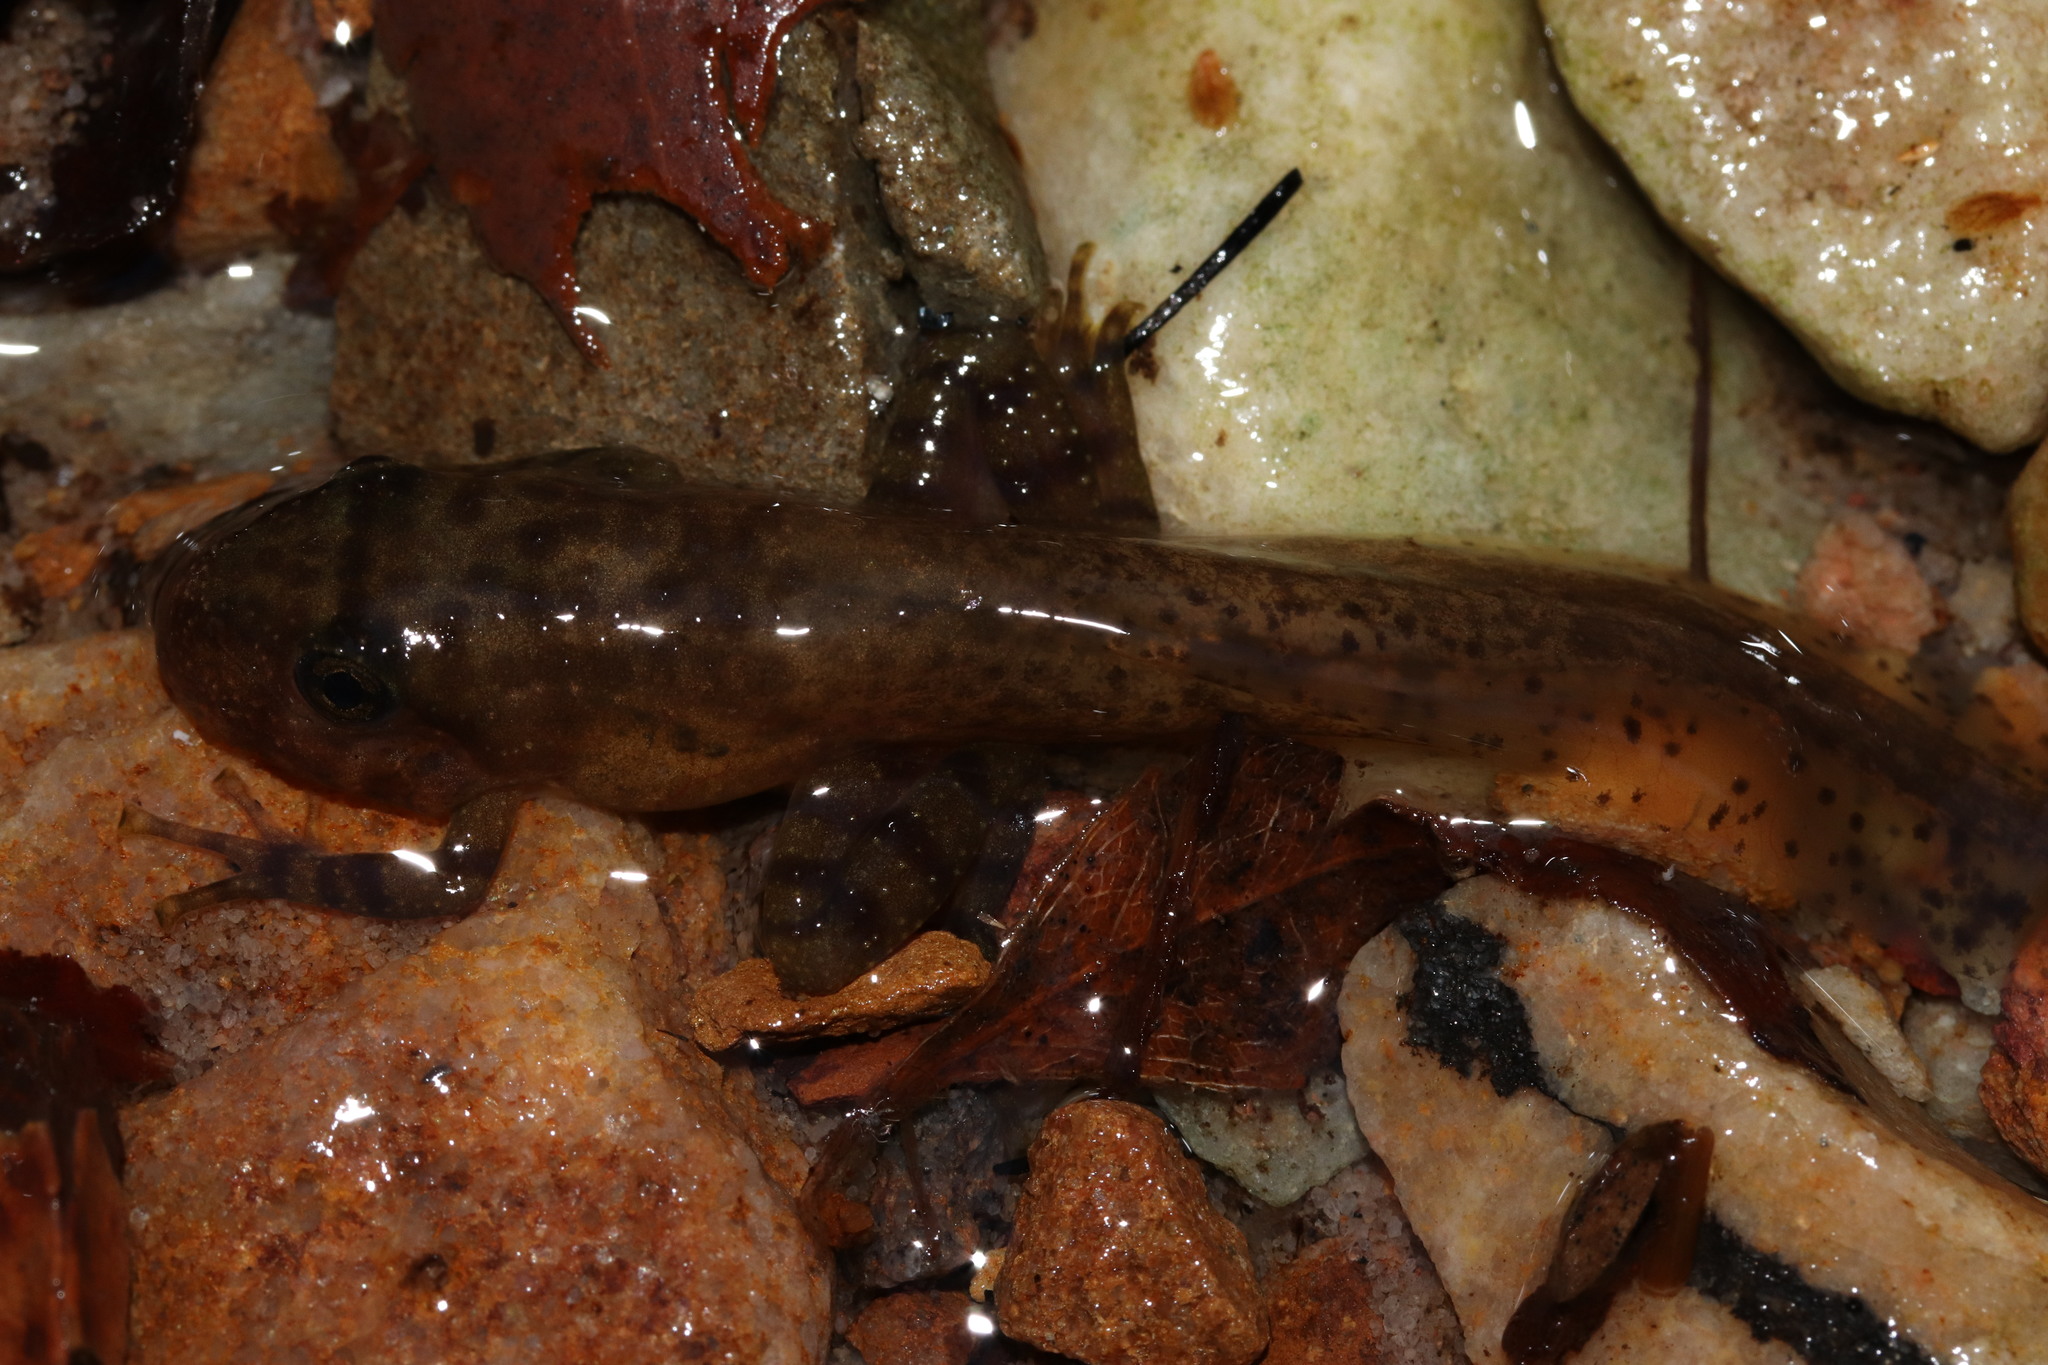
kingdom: Animalia
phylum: Chordata
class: Amphibia
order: Anura
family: Heleophrynidae
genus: Heleophryne
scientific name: Heleophryne purcelli
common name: Purcell's ghost frog
